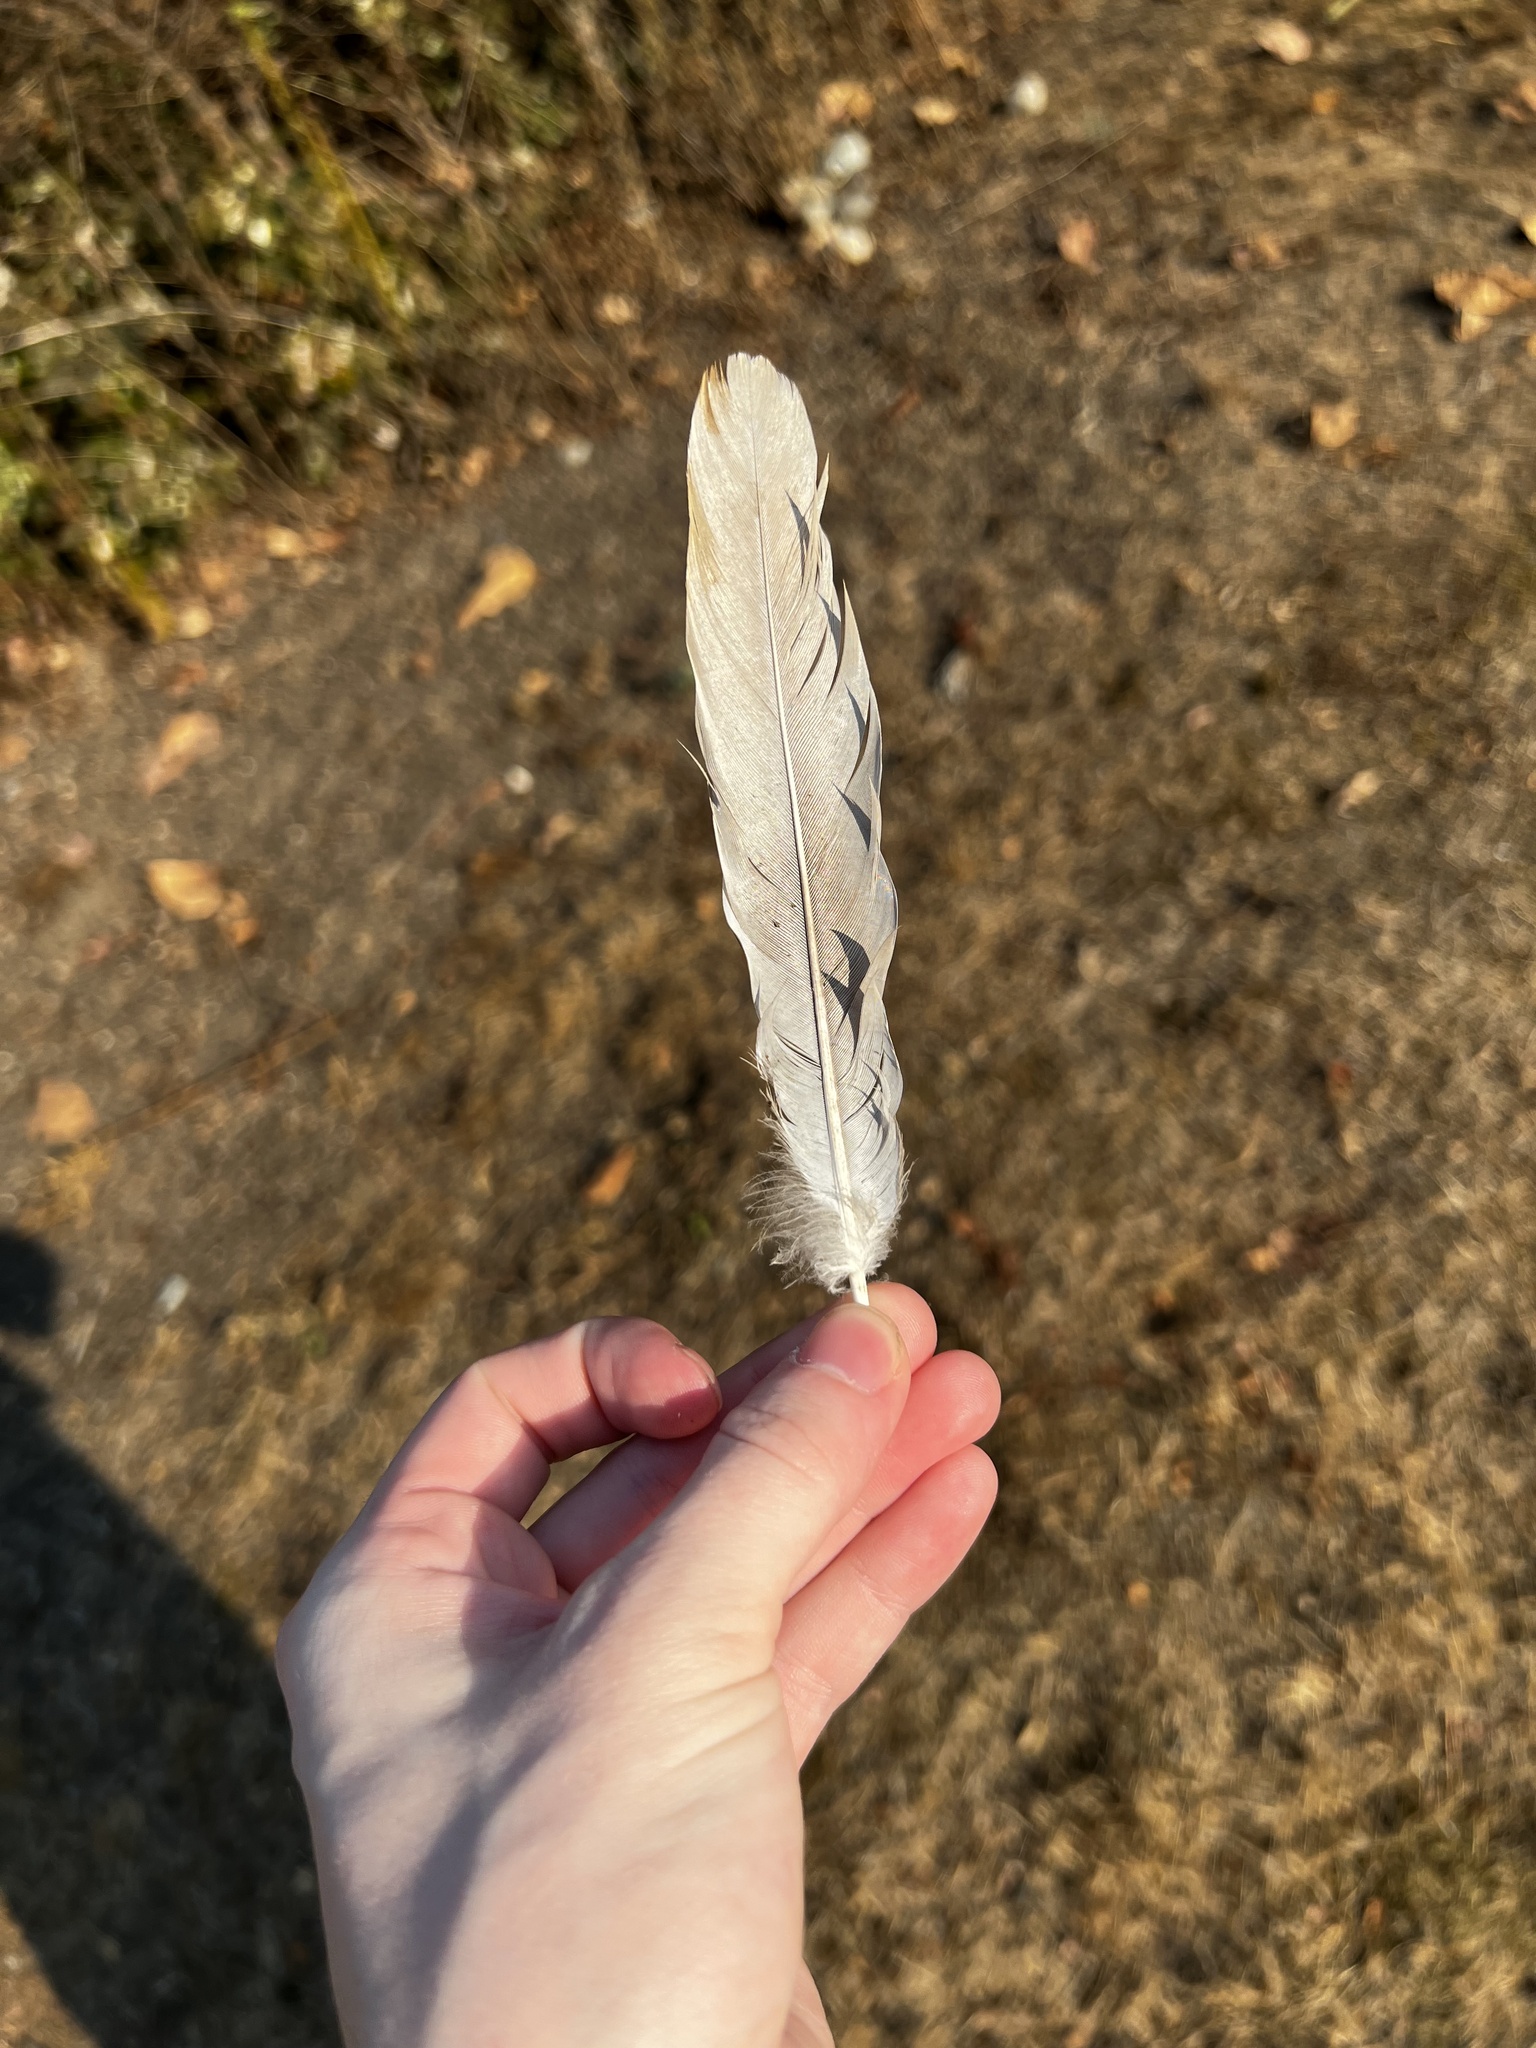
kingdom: Animalia
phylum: Chordata
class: Aves
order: Columbiformes
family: Columbidae
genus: Streptopelia
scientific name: Streptopelia decaocto
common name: Eurasian collared dove
